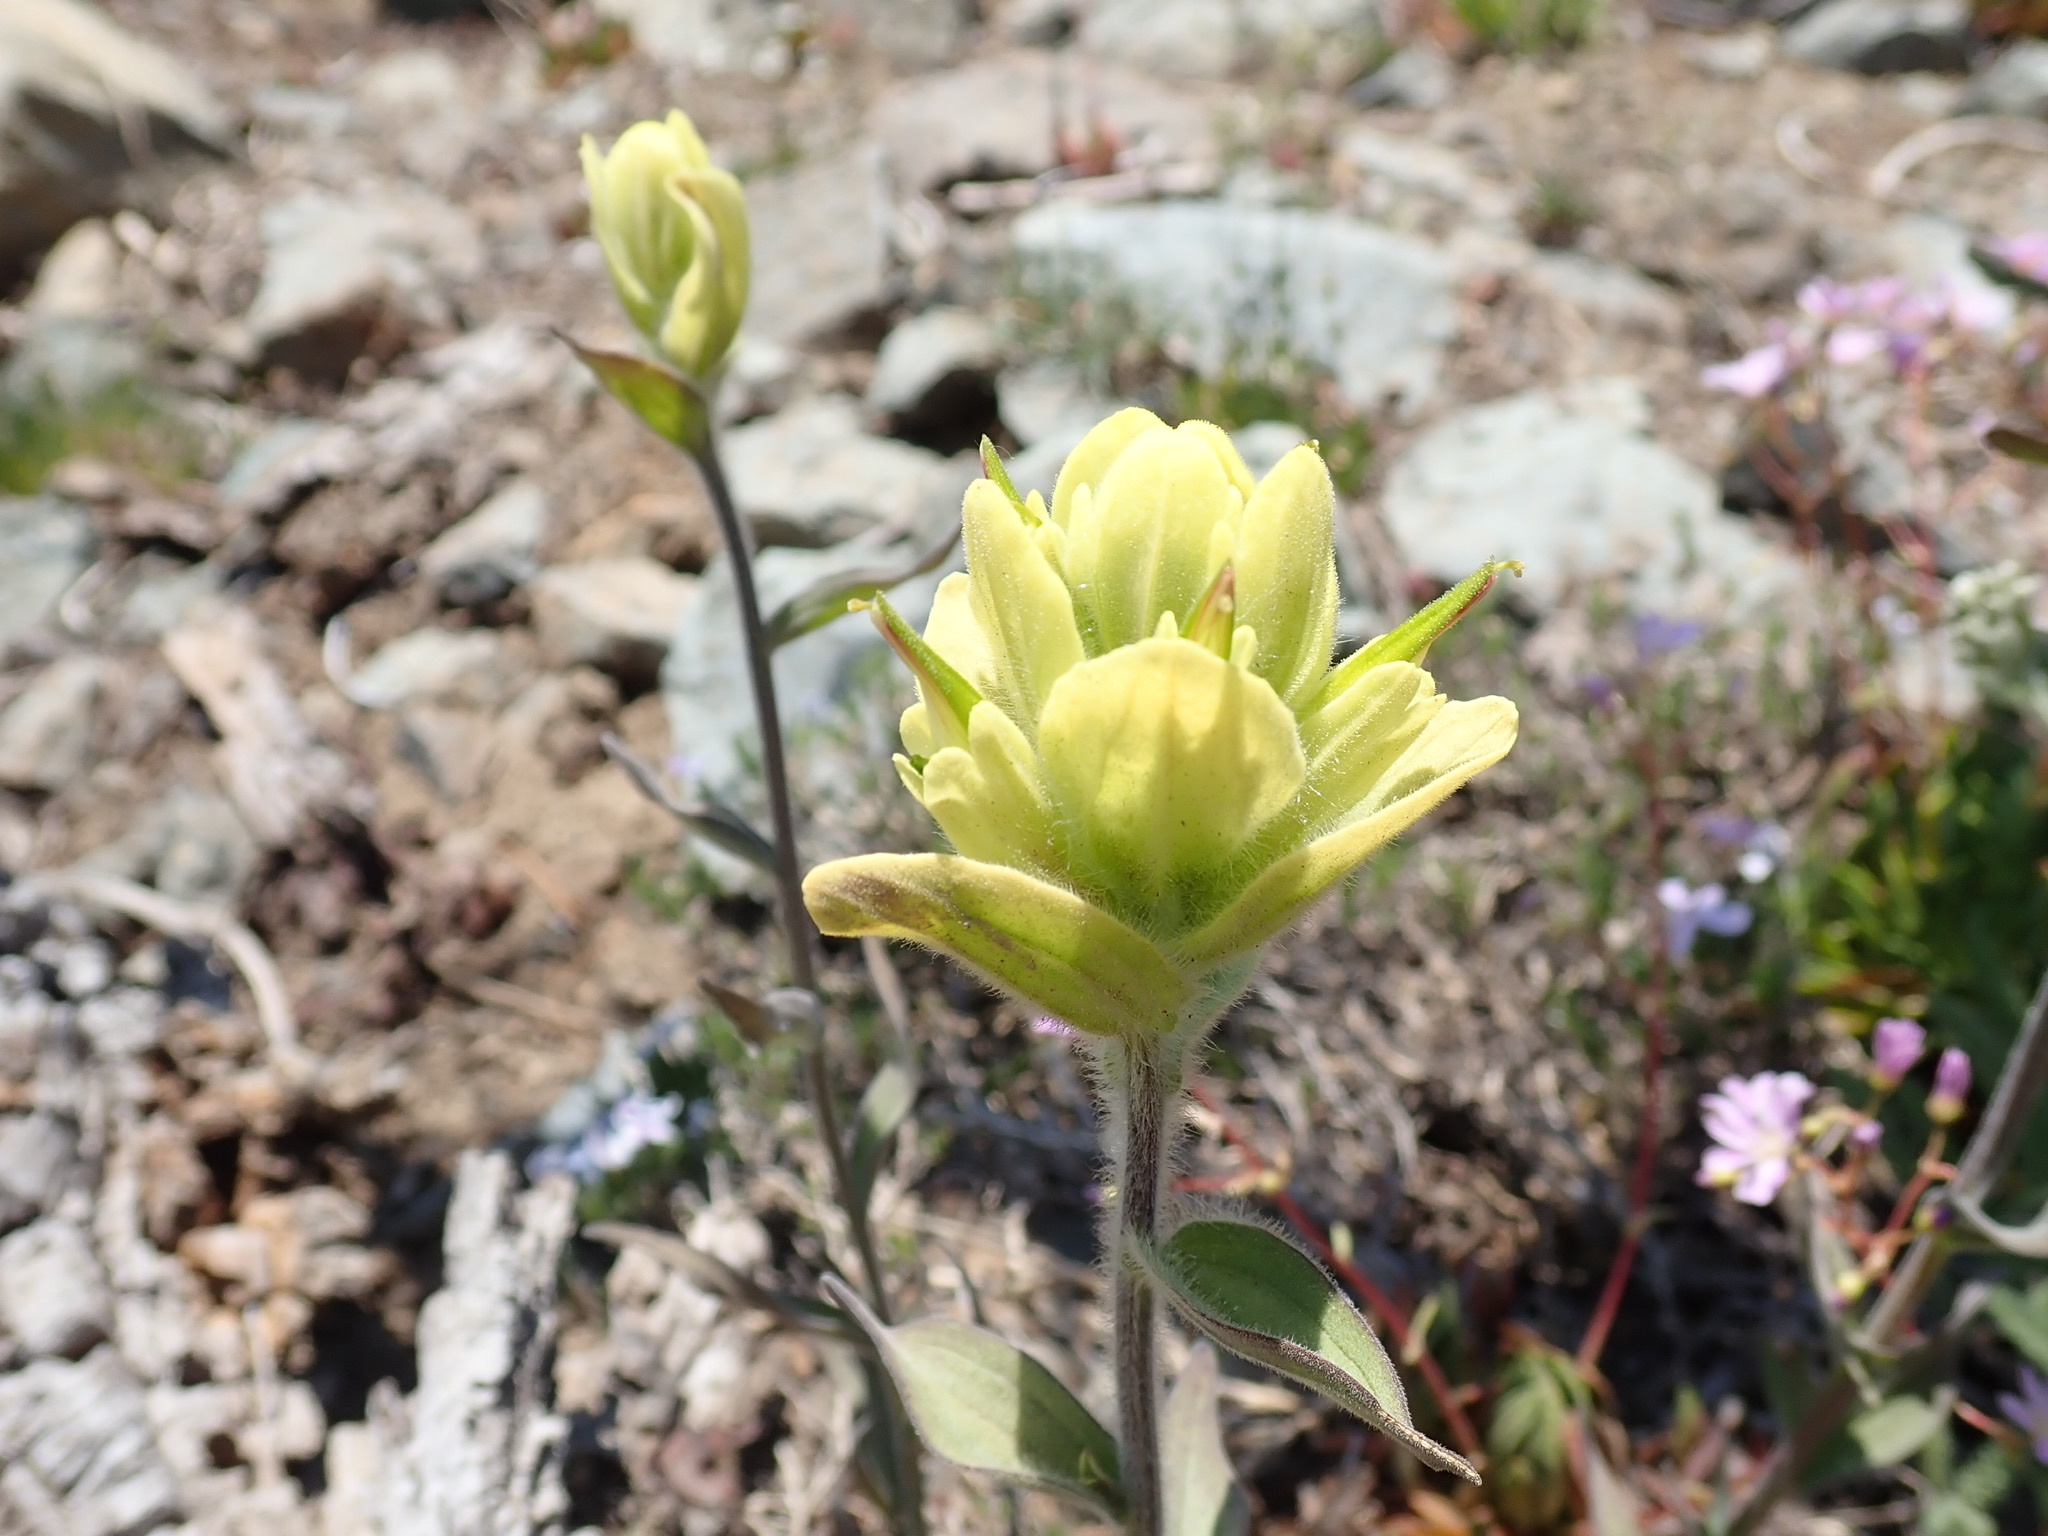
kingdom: Plantae
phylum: Tracheophyta
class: Magnoliopsida
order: Lamiales
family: Orobanchaceae
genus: Castilleja
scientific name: Castilleja elmeri
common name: Elmer's paintbrush
